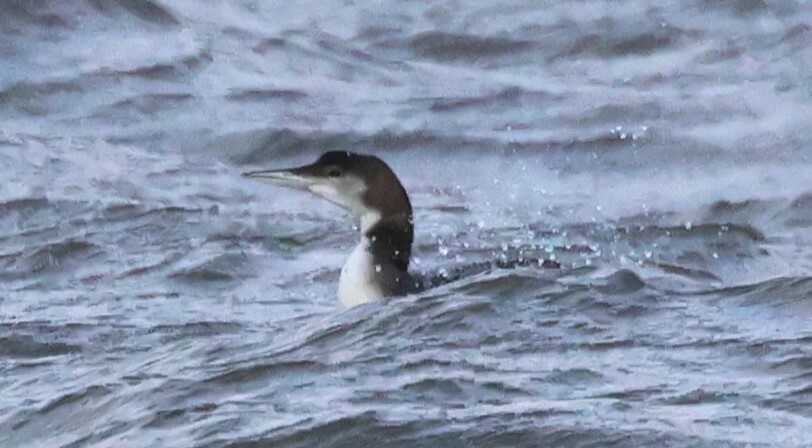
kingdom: Animalia
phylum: Chordata
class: Aves
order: Gaviiformes
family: Gaviidae
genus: Gavia
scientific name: Gavia immer
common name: Common loon
